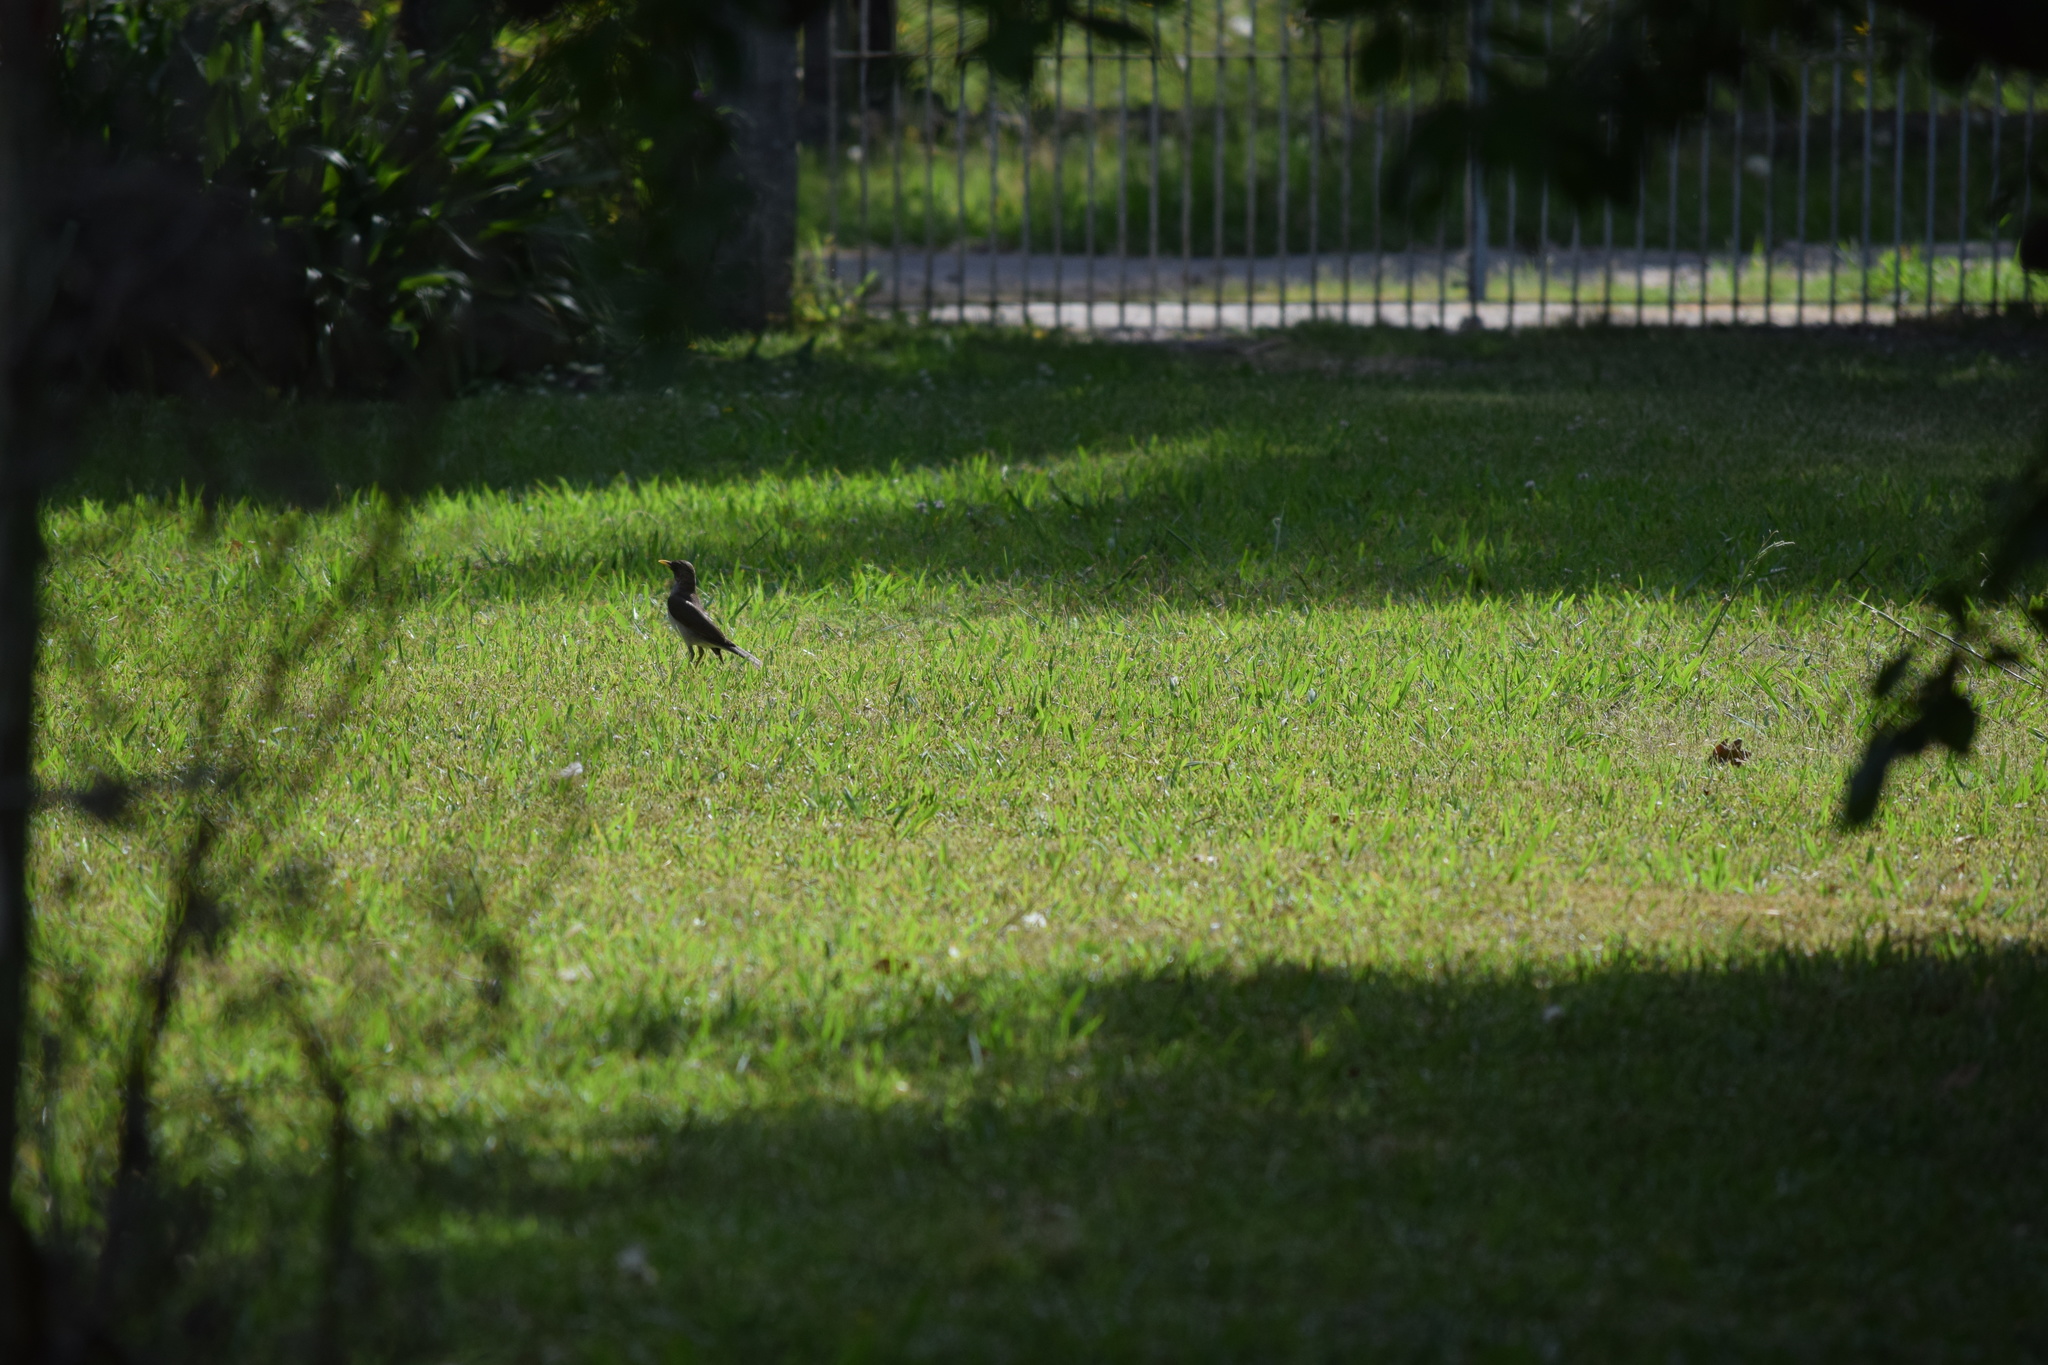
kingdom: Animalia
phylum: Chordata
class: Aves
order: Passeriformes
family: Turdidae
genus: Turdus
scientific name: Turdus amaurochalinus
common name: Creamy-bellied thrush
